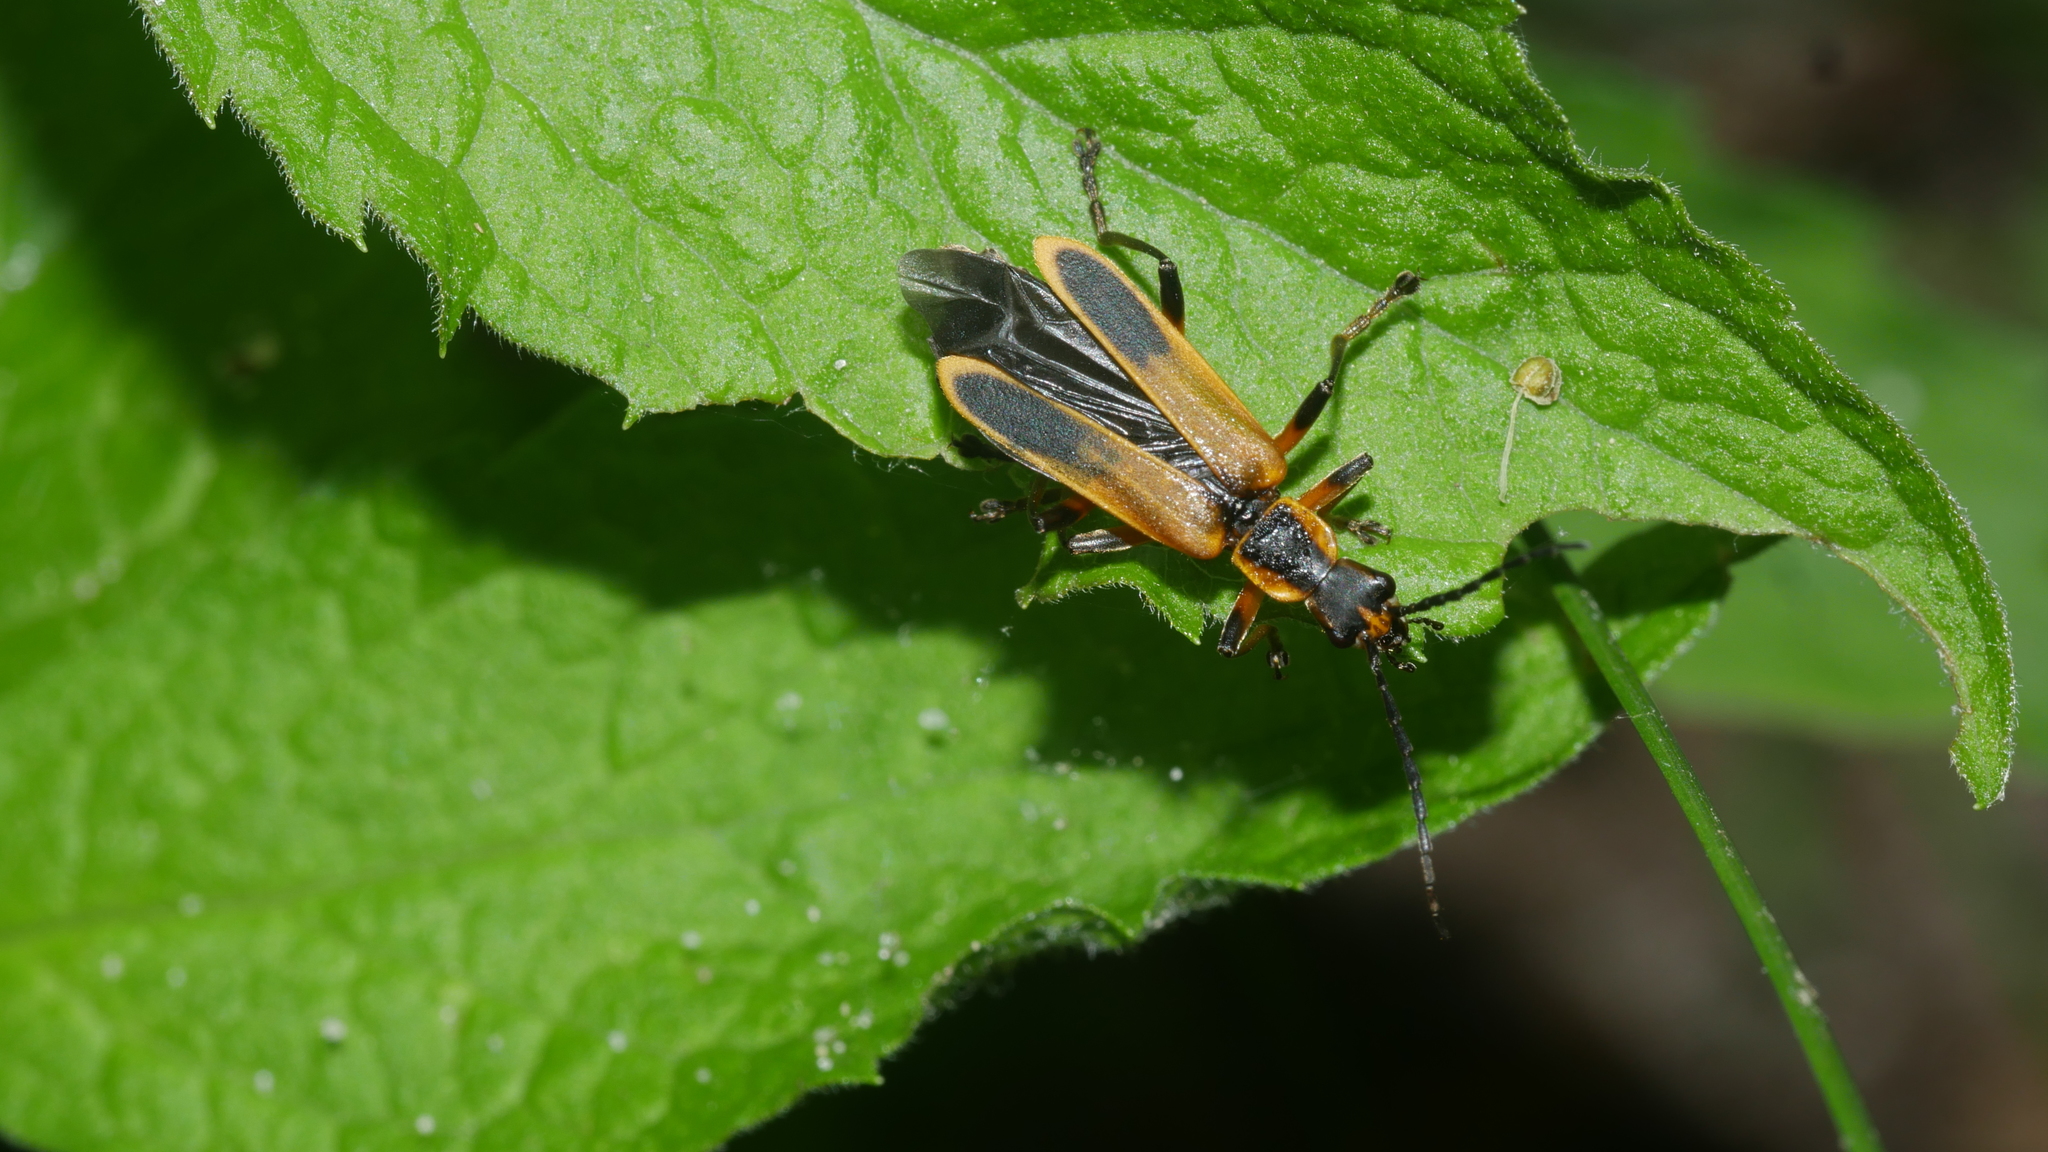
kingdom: Animalia
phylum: Arthropoda
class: Insecta
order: Coleoptera
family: Cantharidae
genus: Chauliognathus
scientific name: Chauliognathus marginatus
